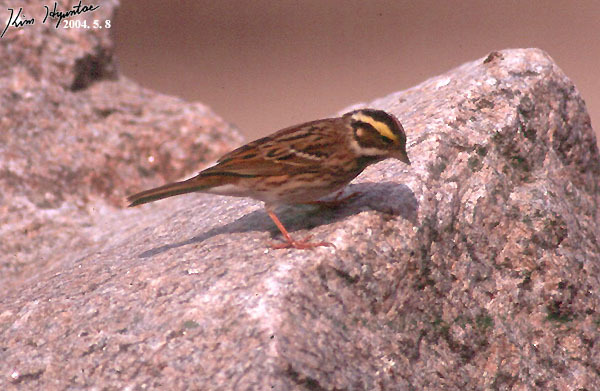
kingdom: Animalia
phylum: Chordata
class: Aves
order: Passeriformes
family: Emberizidae
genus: Emberiza
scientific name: Emberiza chrysophrys
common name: Yellow-browed bunting
